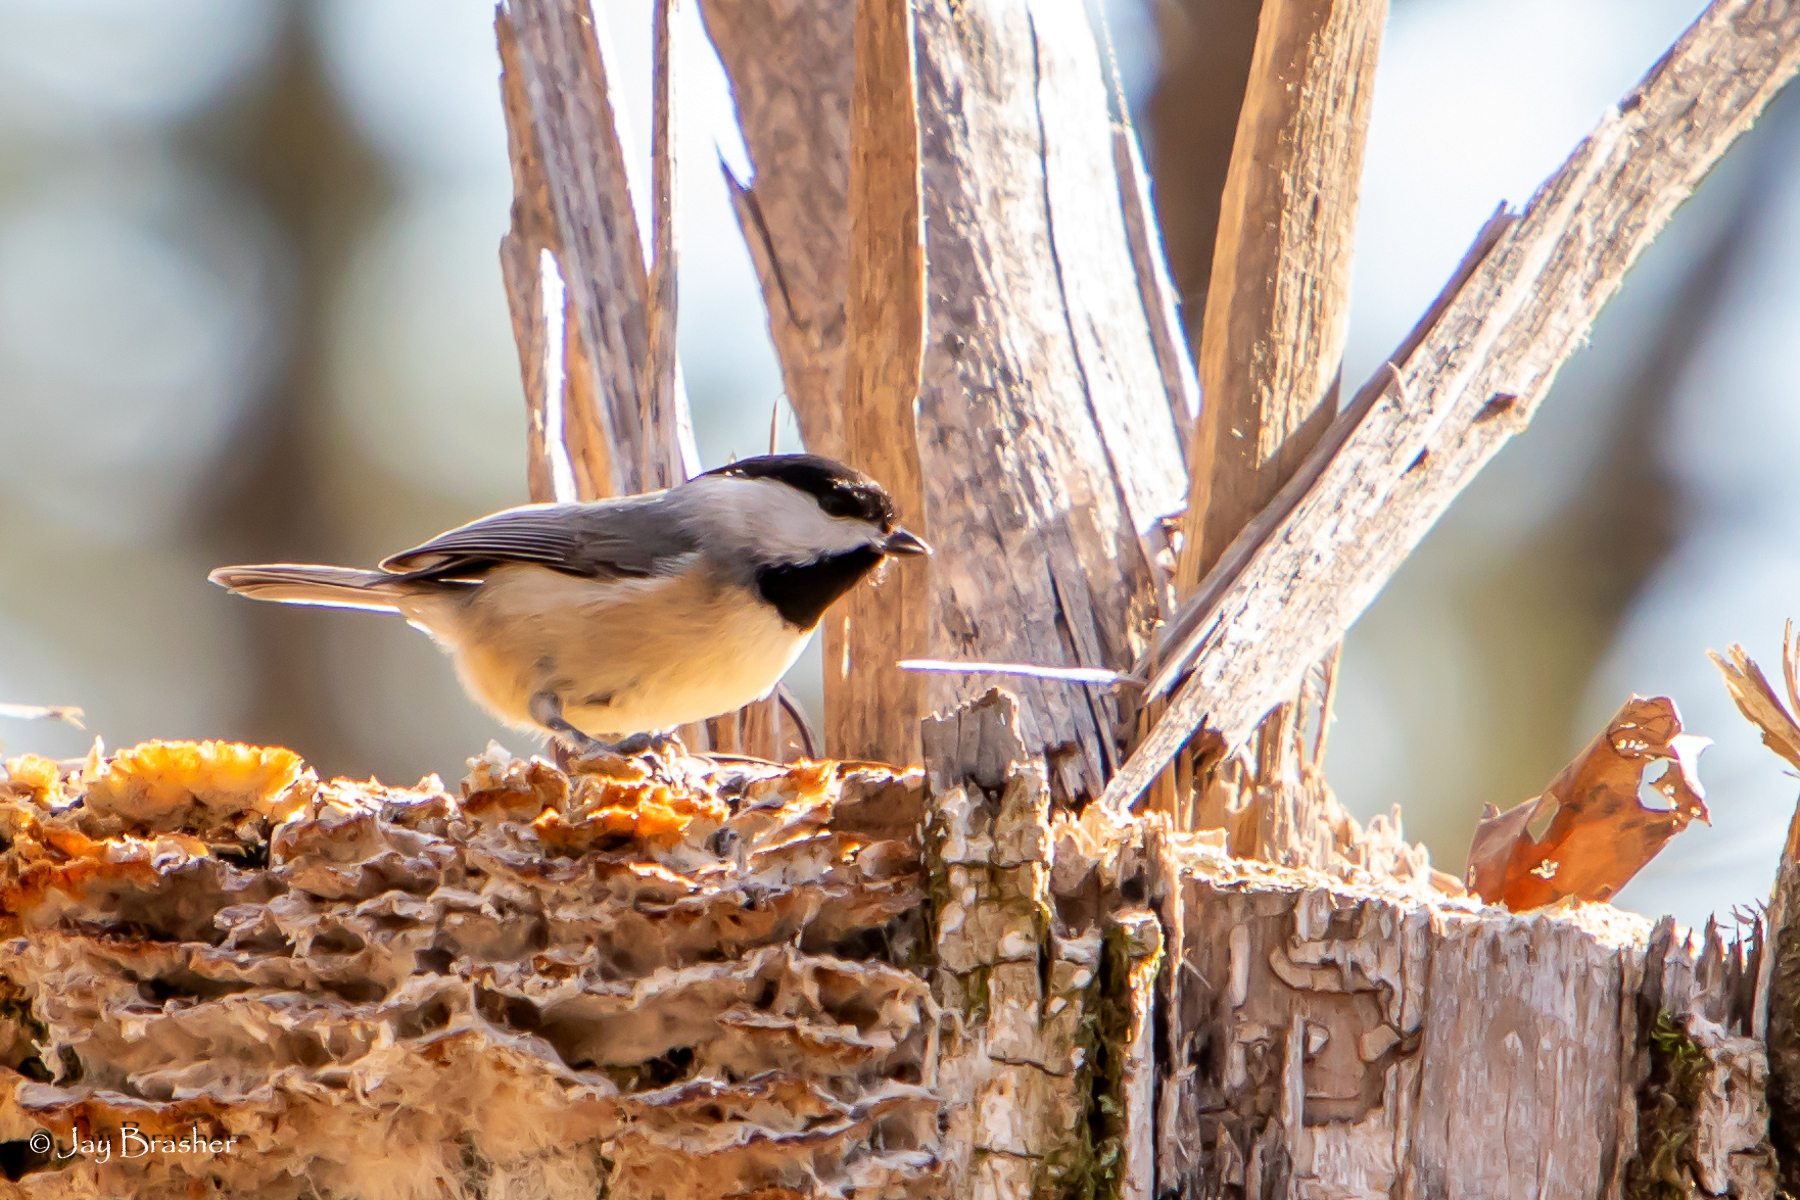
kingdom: Animalia
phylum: Chordata
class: Aves
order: Passeriformes
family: Paridae
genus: Poecile
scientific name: Poecile carolinensis
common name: Carolina chickadee
